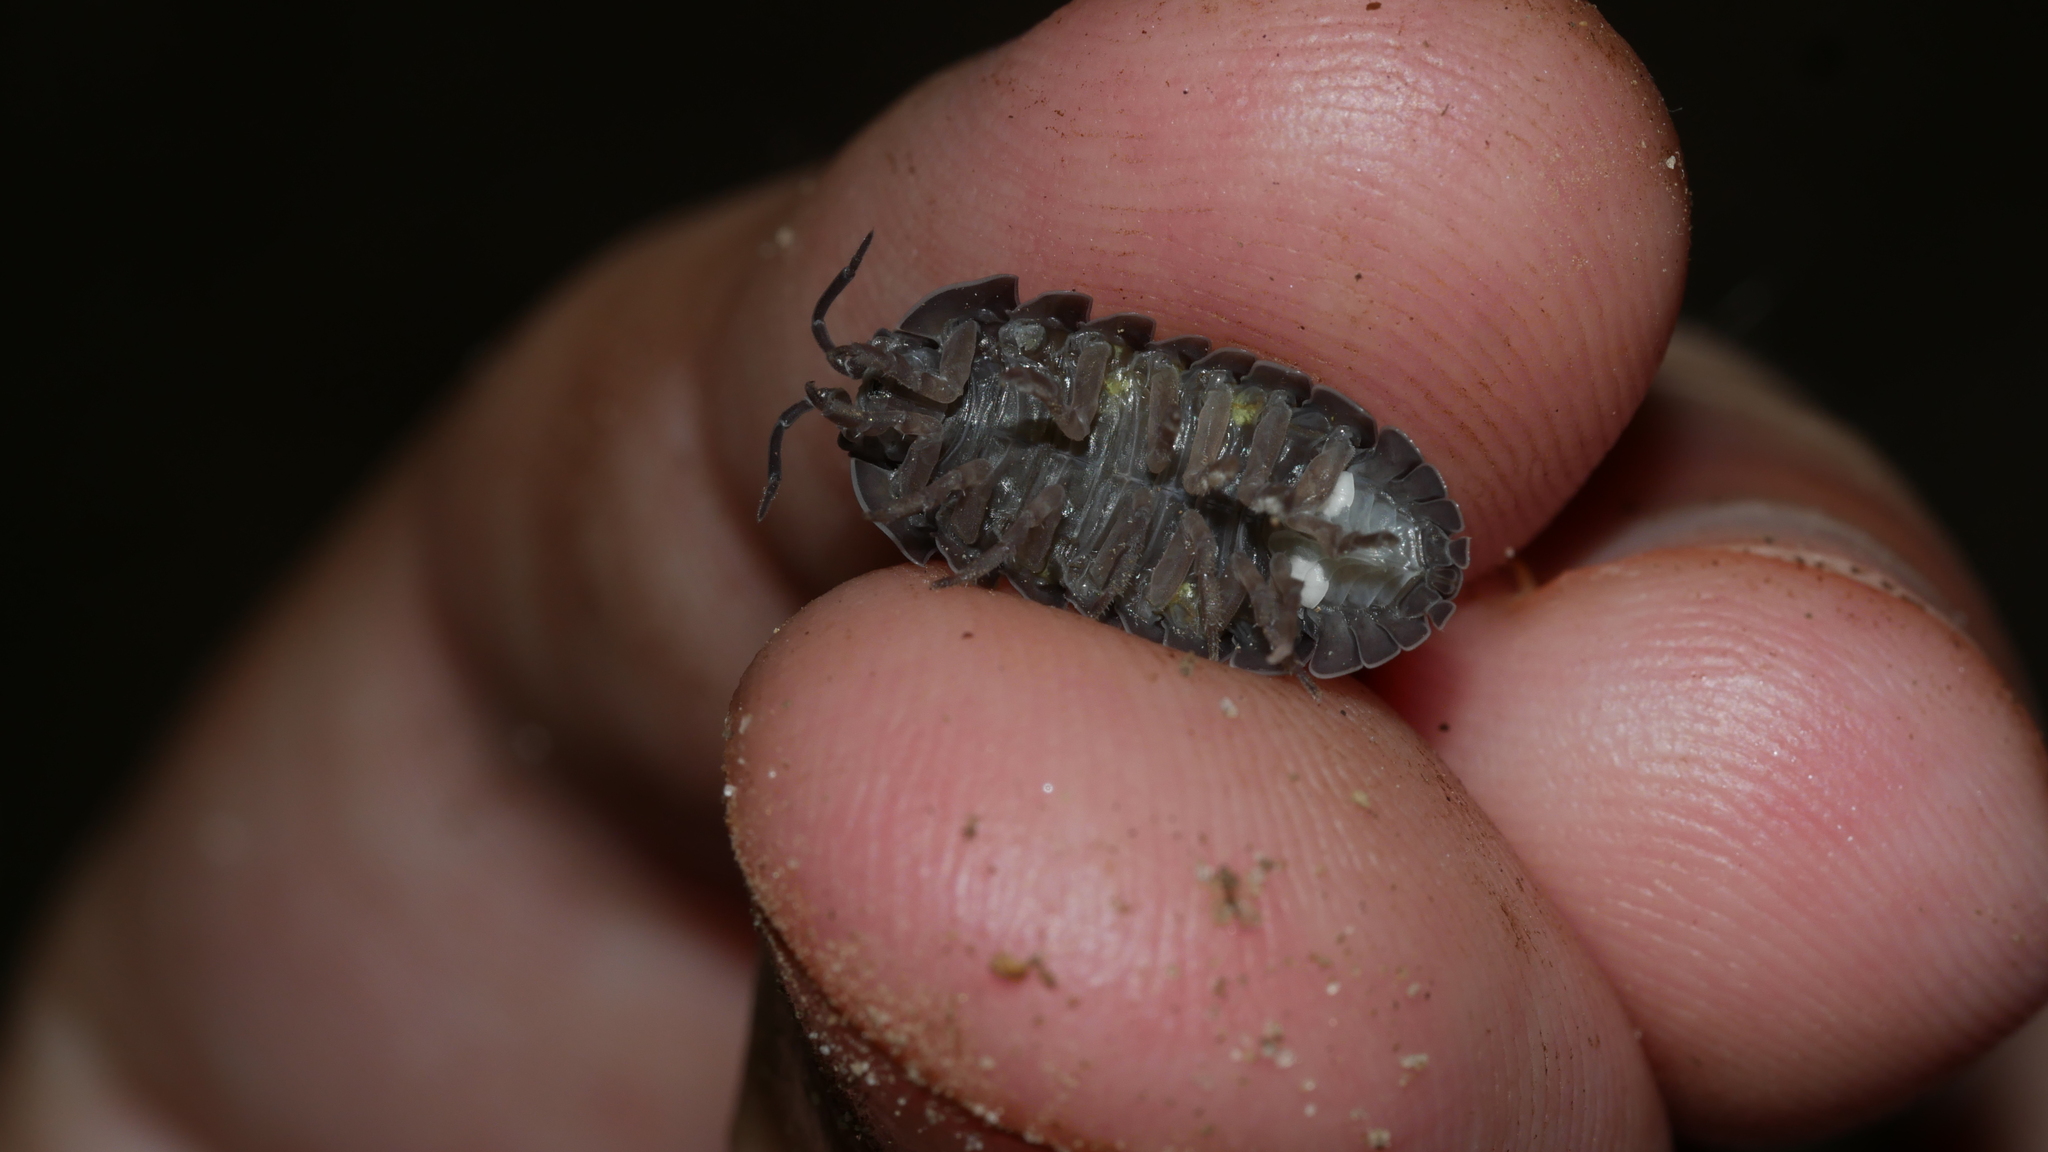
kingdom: Animalia
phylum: Arthropoda
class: Malacostraca
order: Isopoda
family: Armadillidiidae
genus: Armadillidium
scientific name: Armadillidium vulgare
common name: Common pill woodlouse
